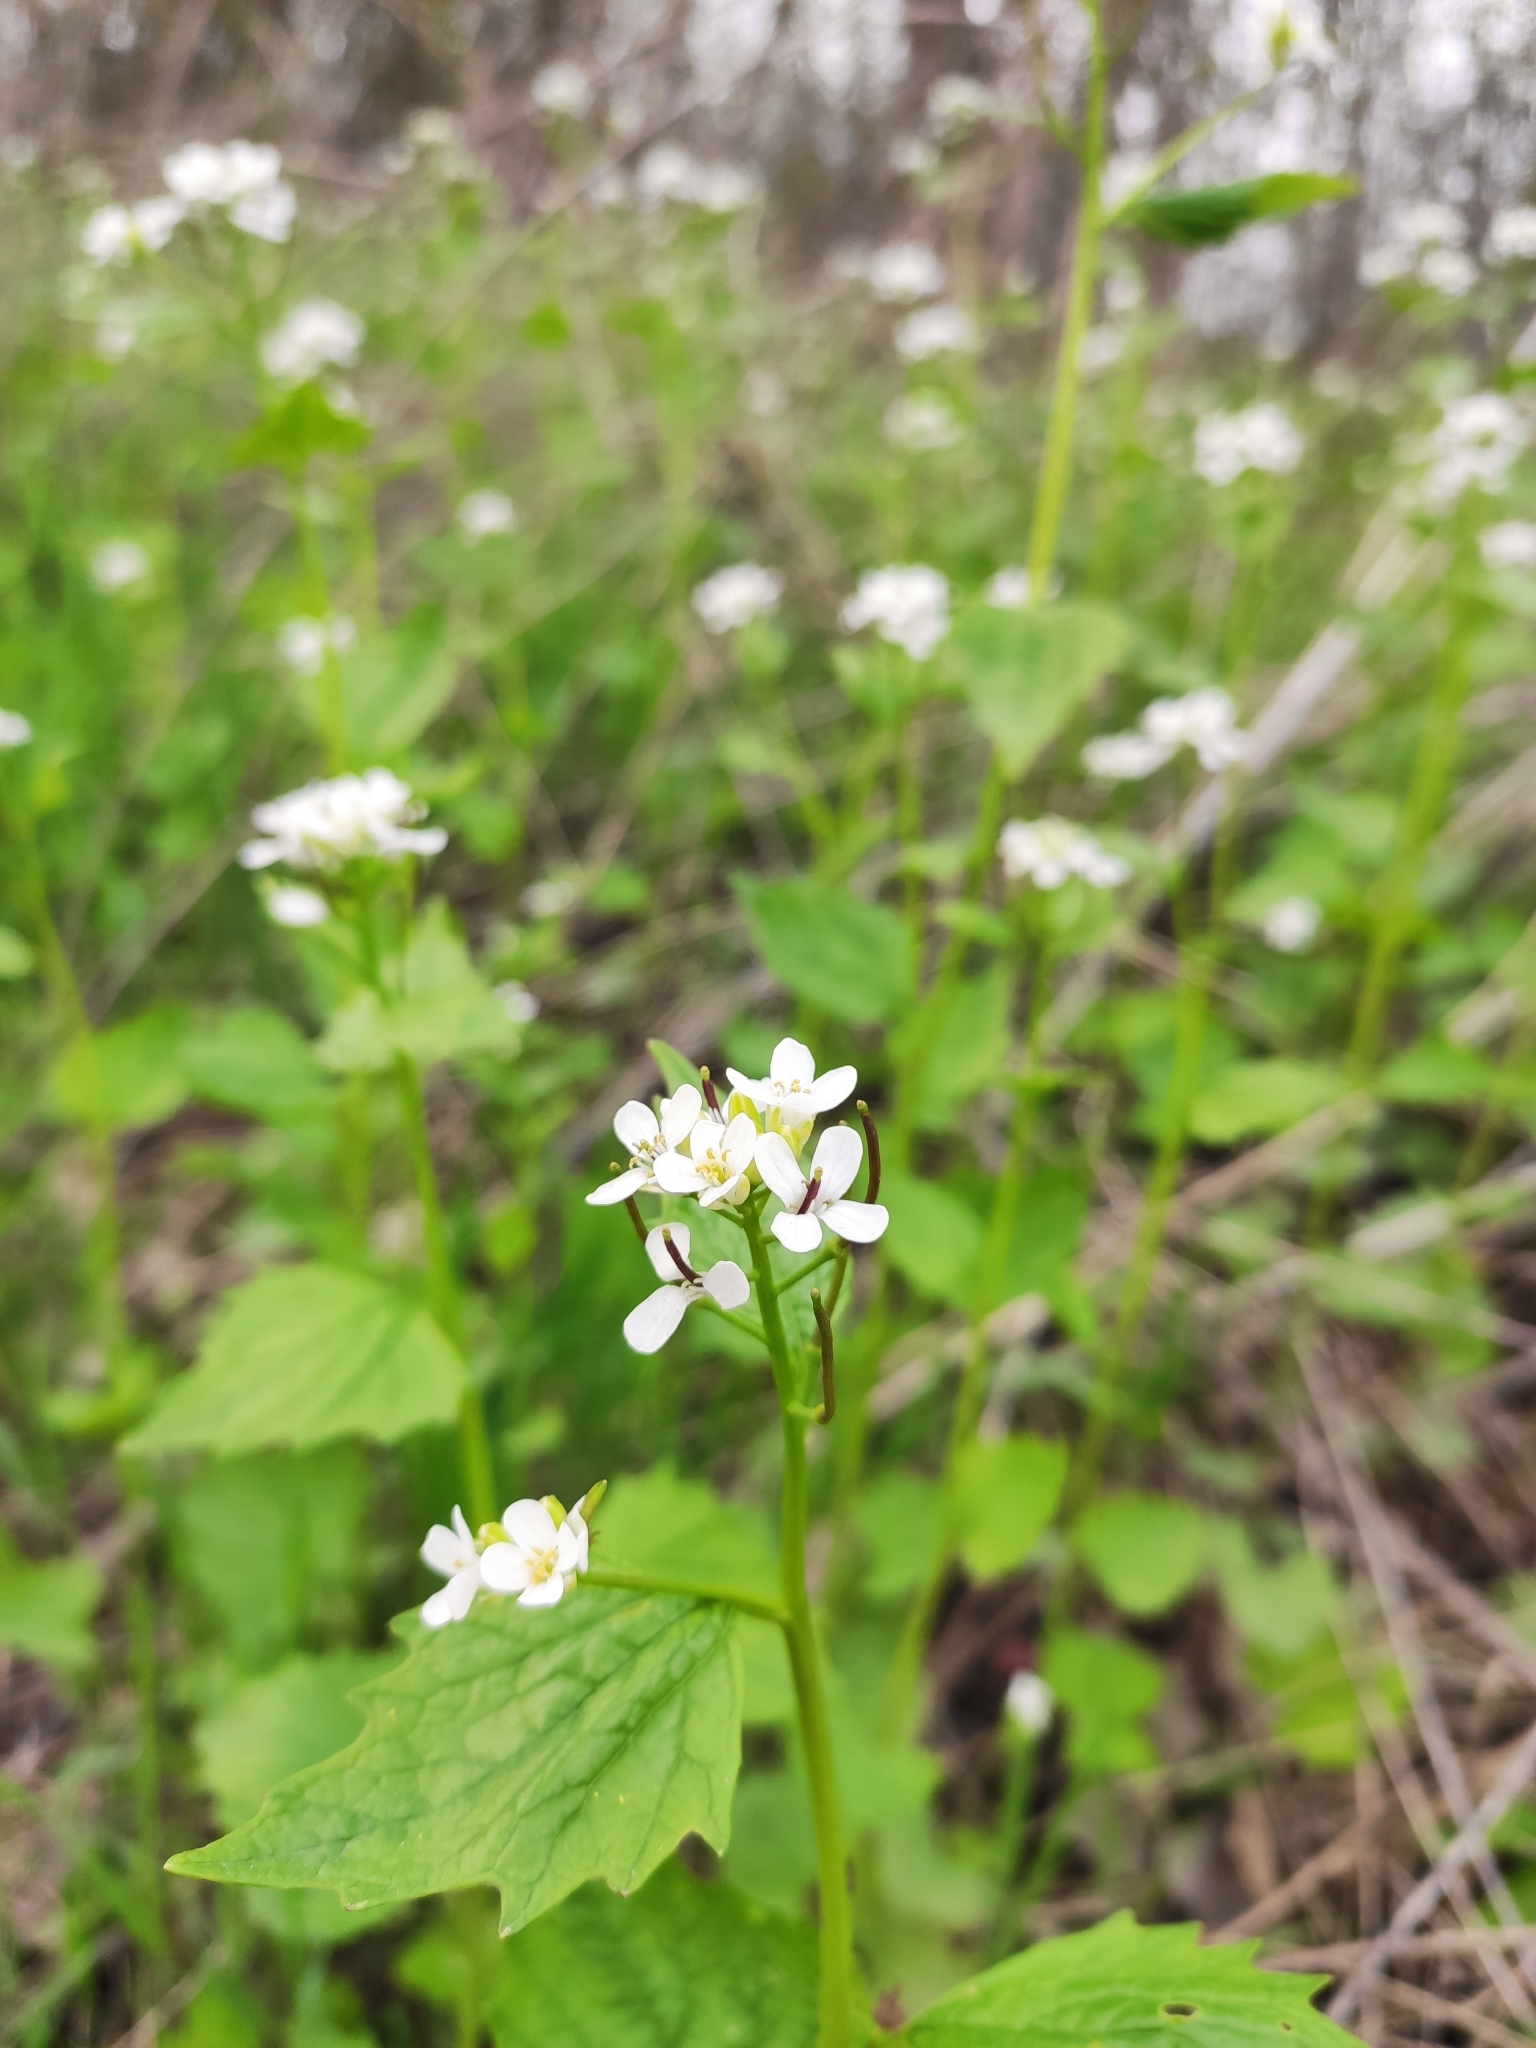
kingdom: Plantae
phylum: Tracheophyta
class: Magnoliopsida
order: Brassicales
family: Brassicaceae
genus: Alliaria
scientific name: Alliaria petiolata
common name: Garlic mustard
